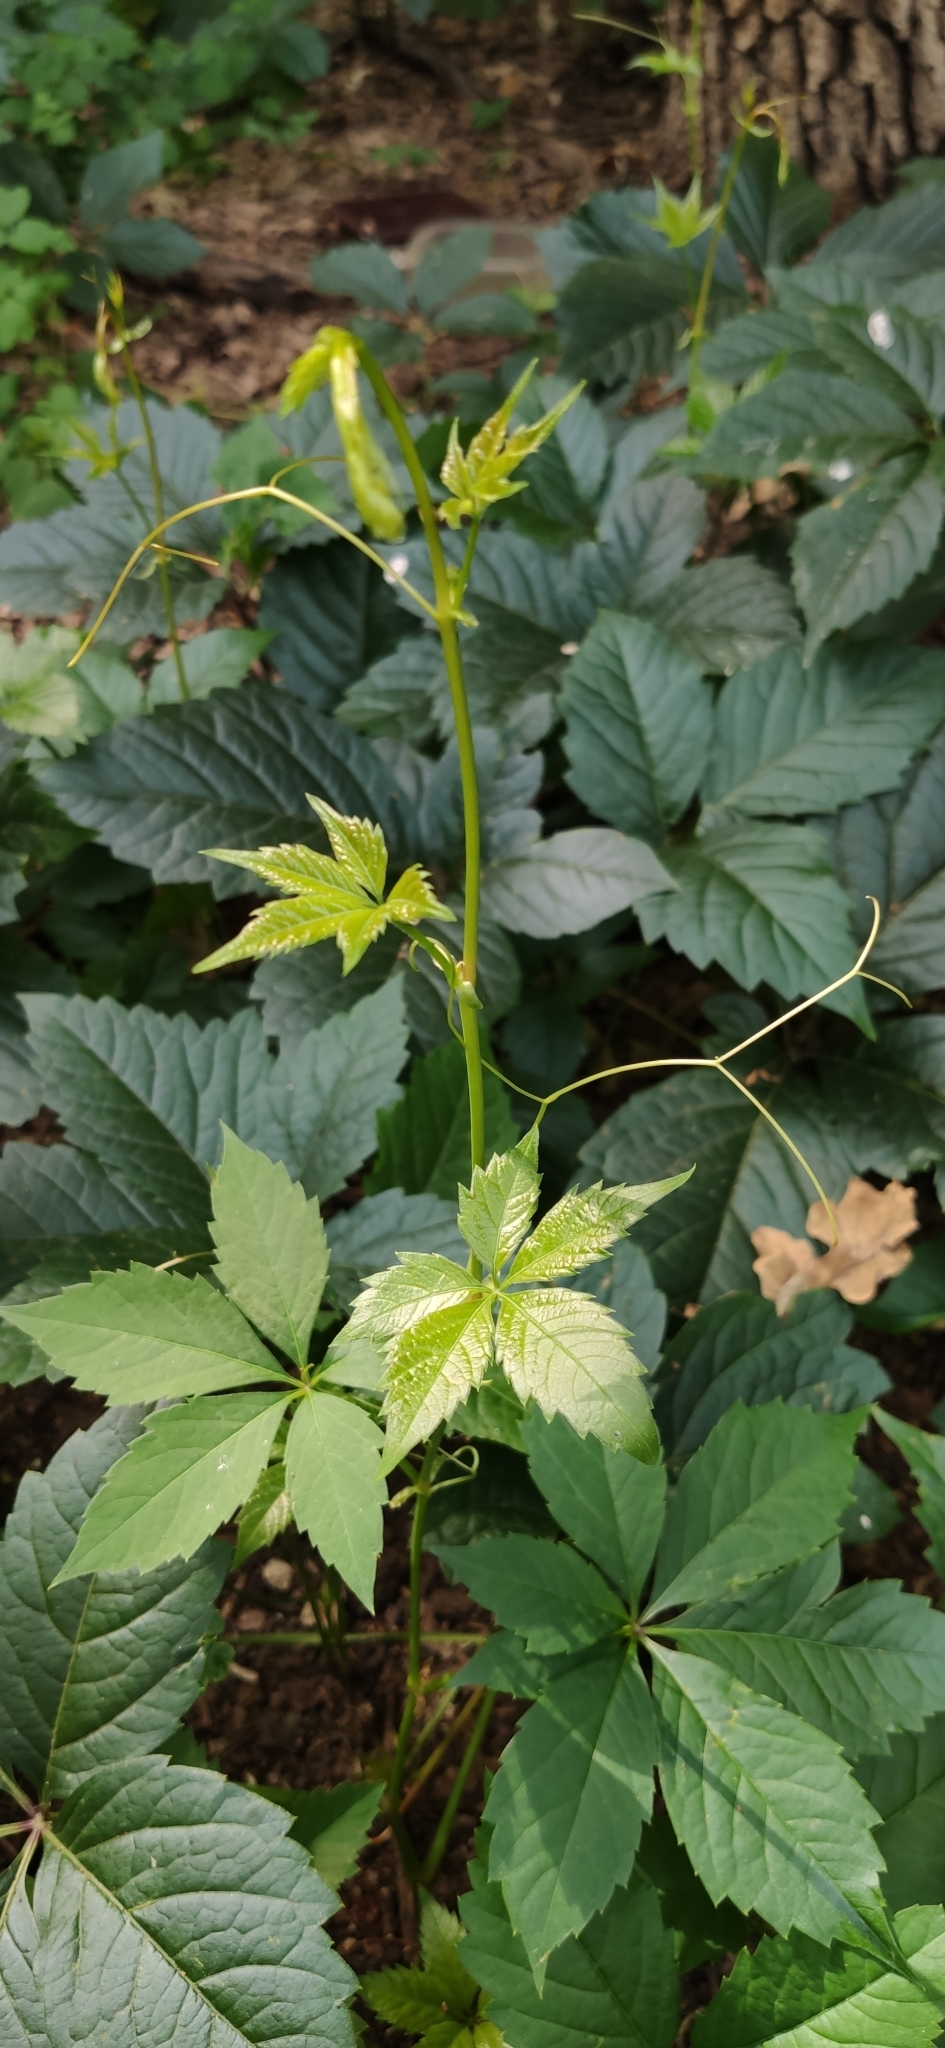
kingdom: Plantae
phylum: Tracheophyta
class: Magnoliopsida
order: Vitales
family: Vitaceae
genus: Parthenocissus
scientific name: Parthenocissus inserta
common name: False virginia-creeper
